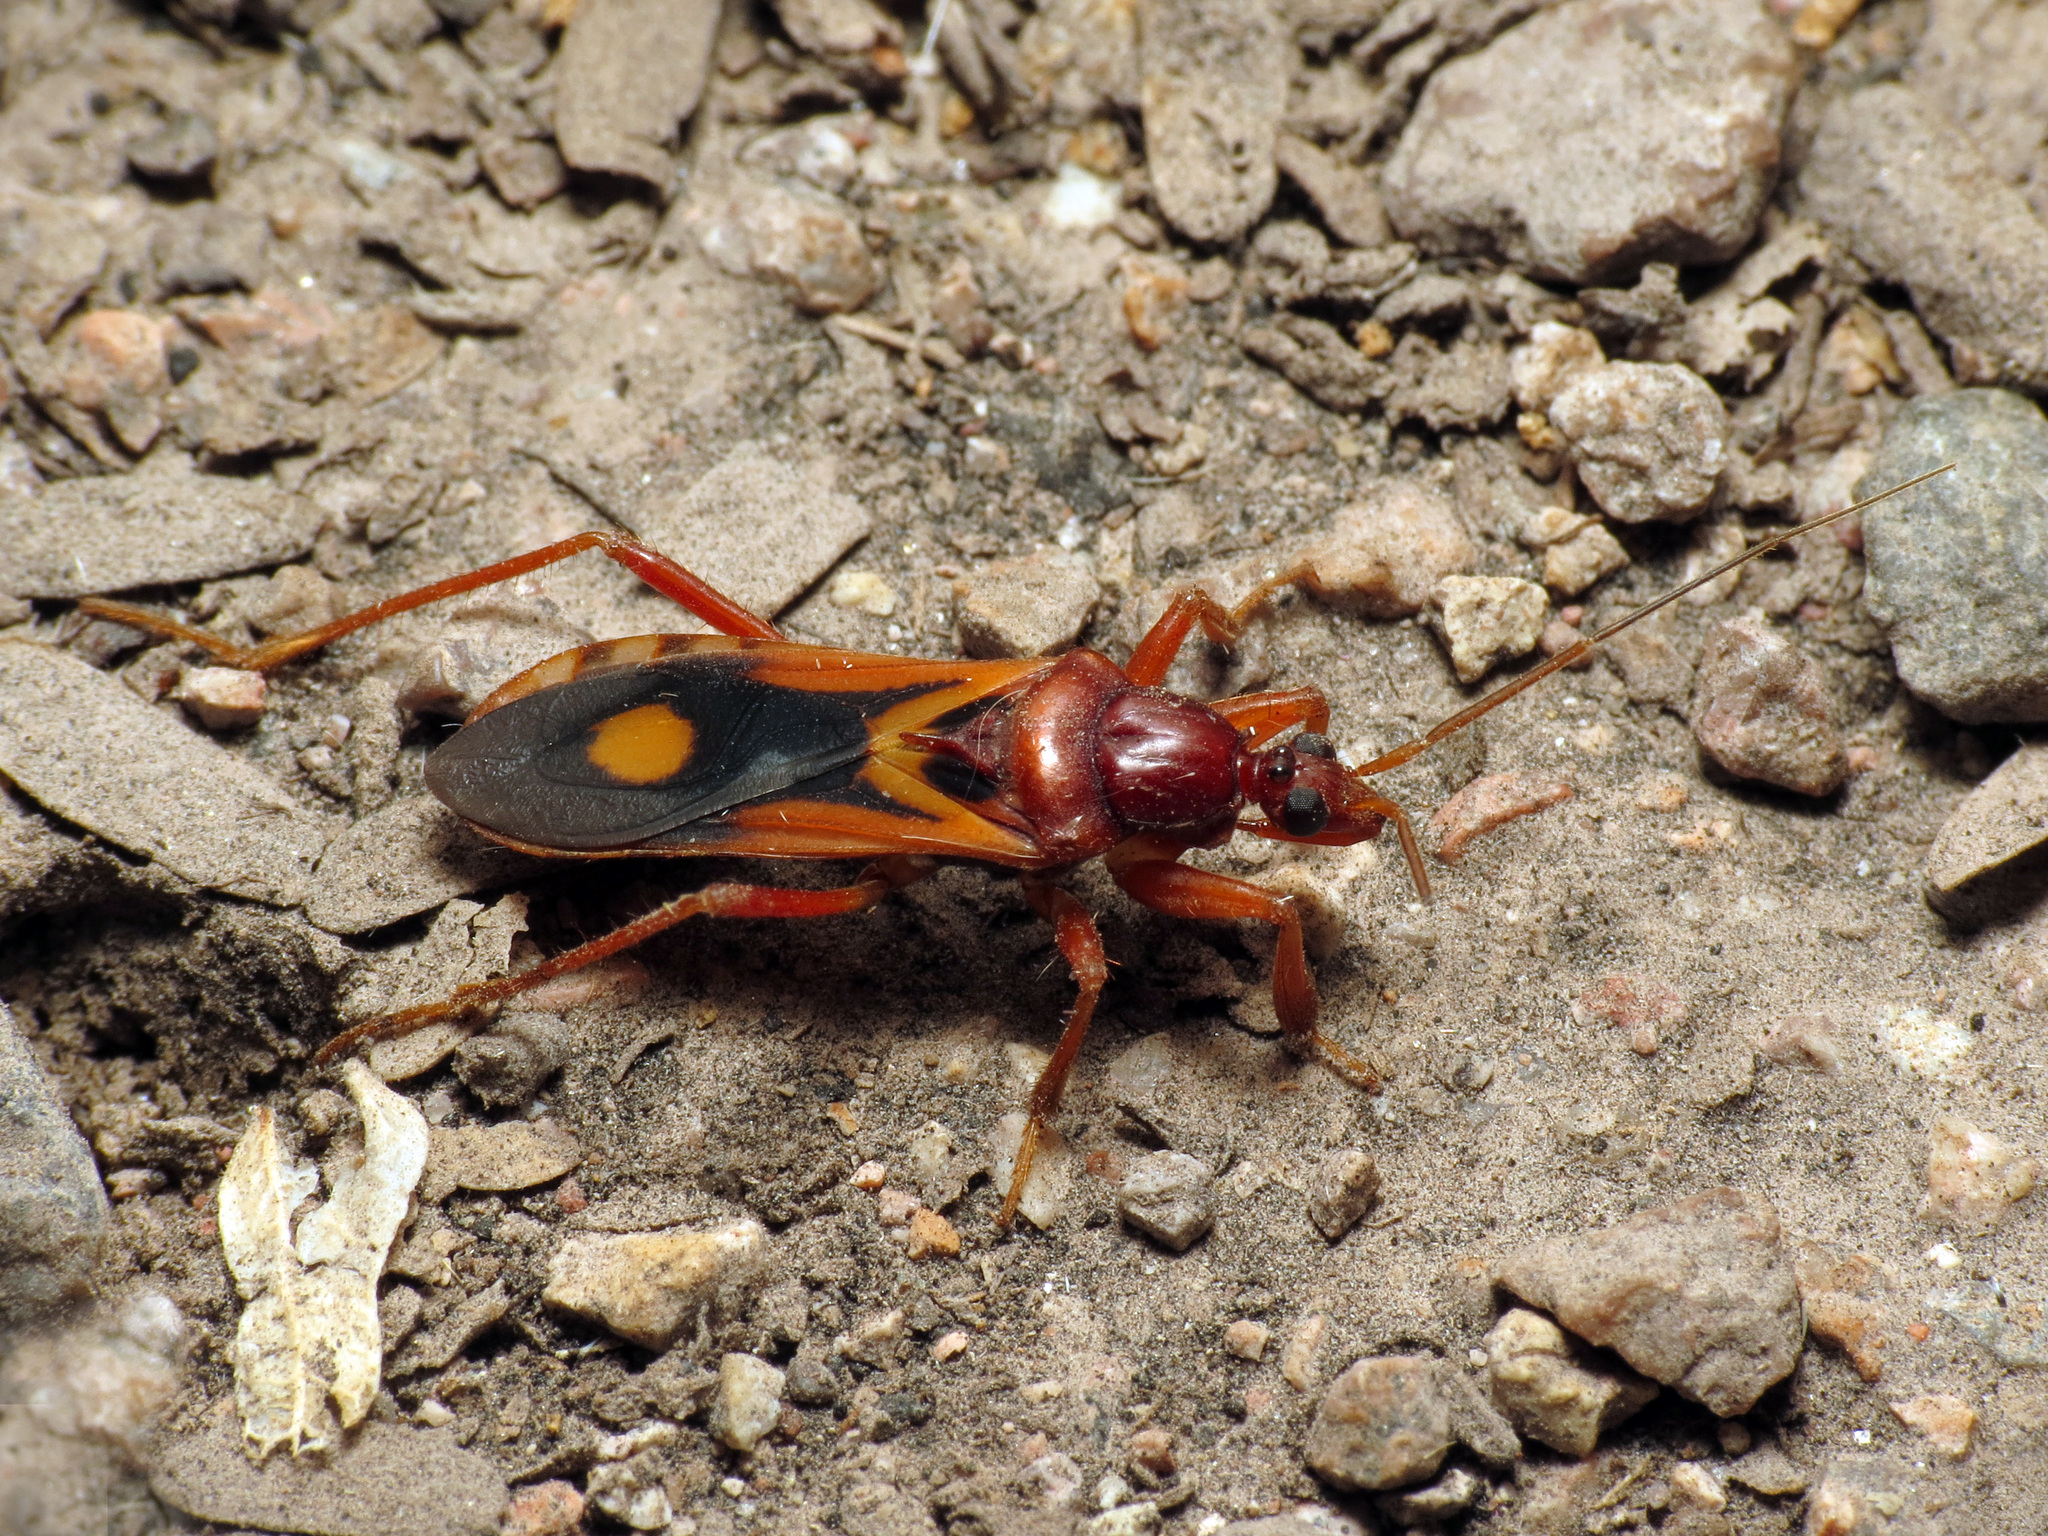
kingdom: Animalia
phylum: Arthropoda
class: Insecta
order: Hemiptera
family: Reduviidae
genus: Rasahus
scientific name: Rasahus thoracicus
